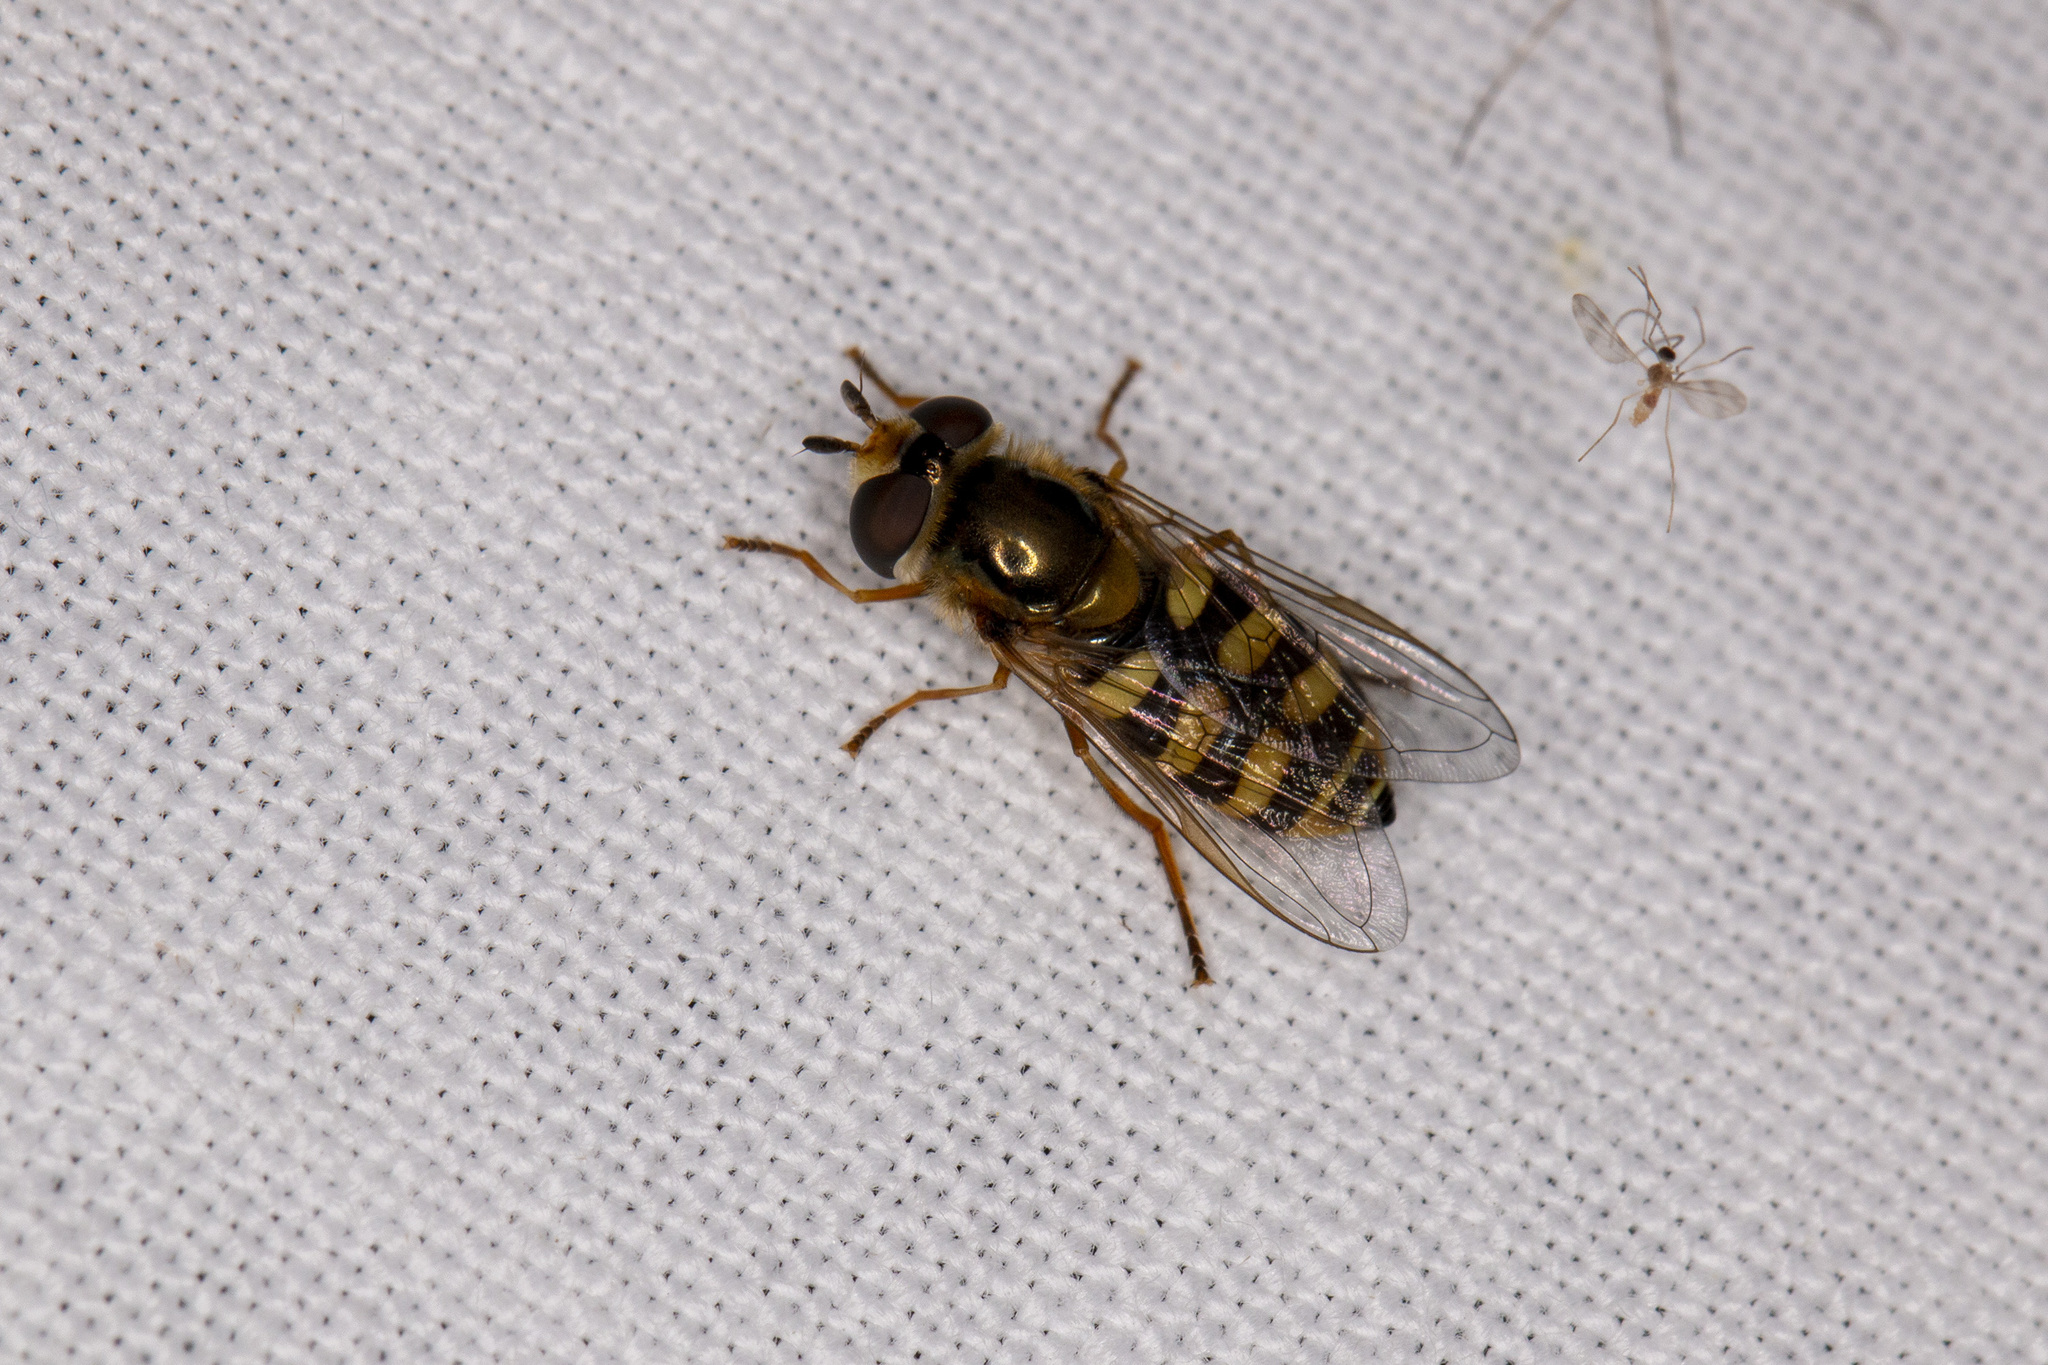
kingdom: Animalia
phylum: Arthropoda
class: Insecta
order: Diptera
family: Syrphidae
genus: Eupeodes
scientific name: Eupeodes corollae
